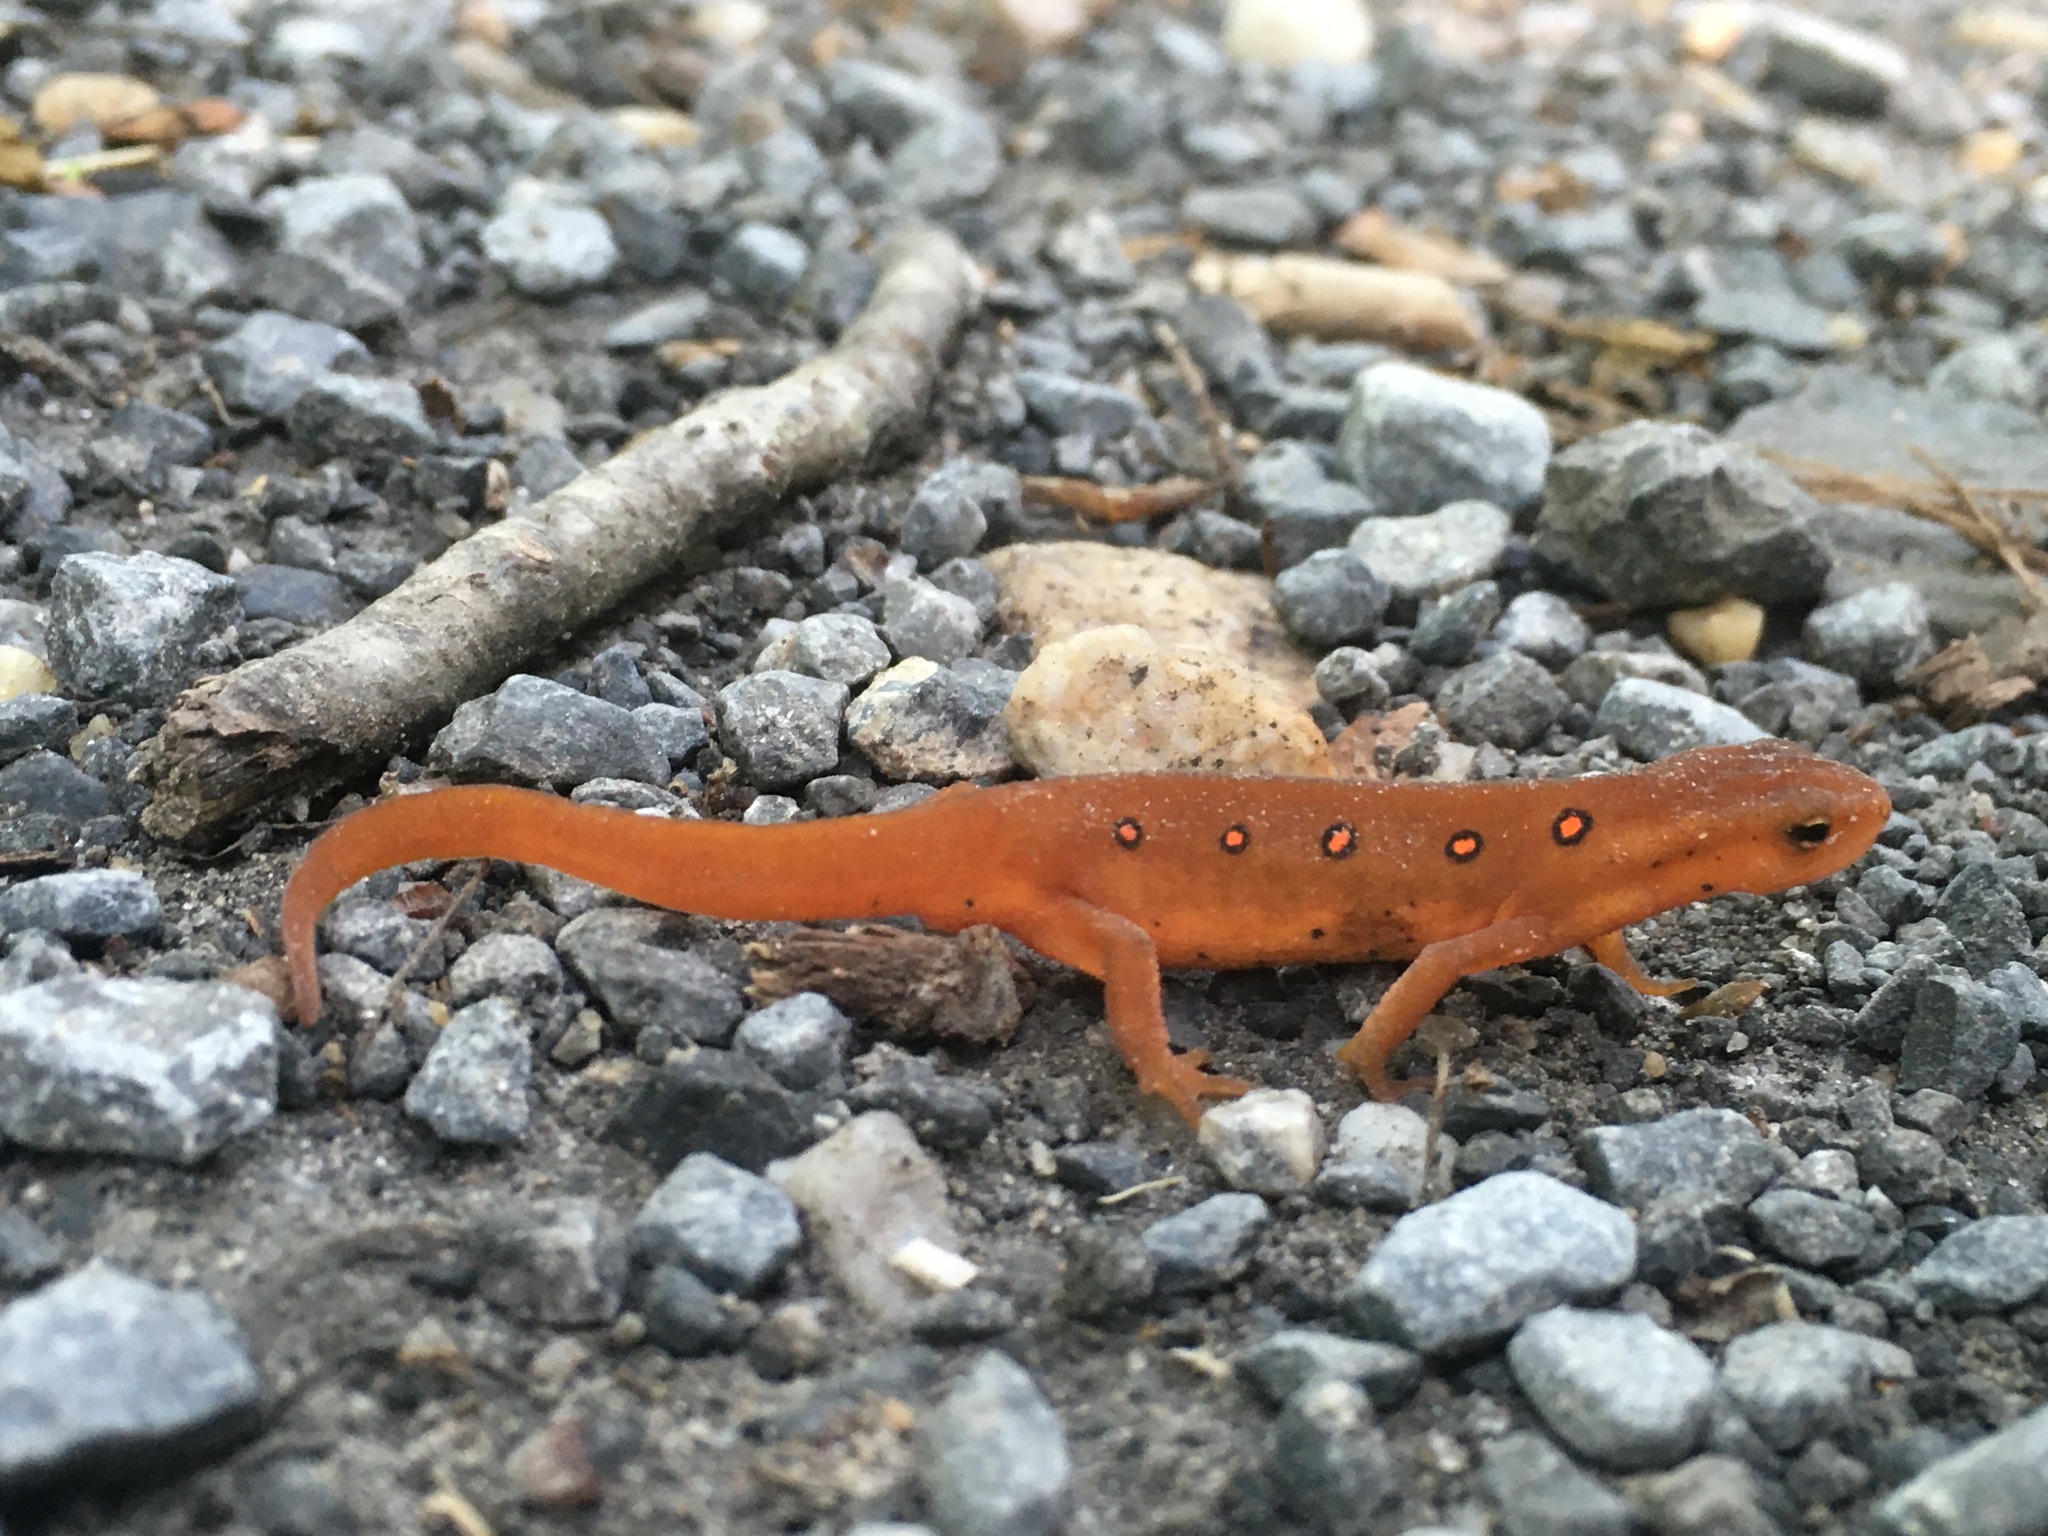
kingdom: Animalia
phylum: Chordata
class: Amphibia
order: Caudata
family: Salamandridae
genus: Notophthalmus
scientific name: Notophthalmus viridescens
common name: Eastern newt
